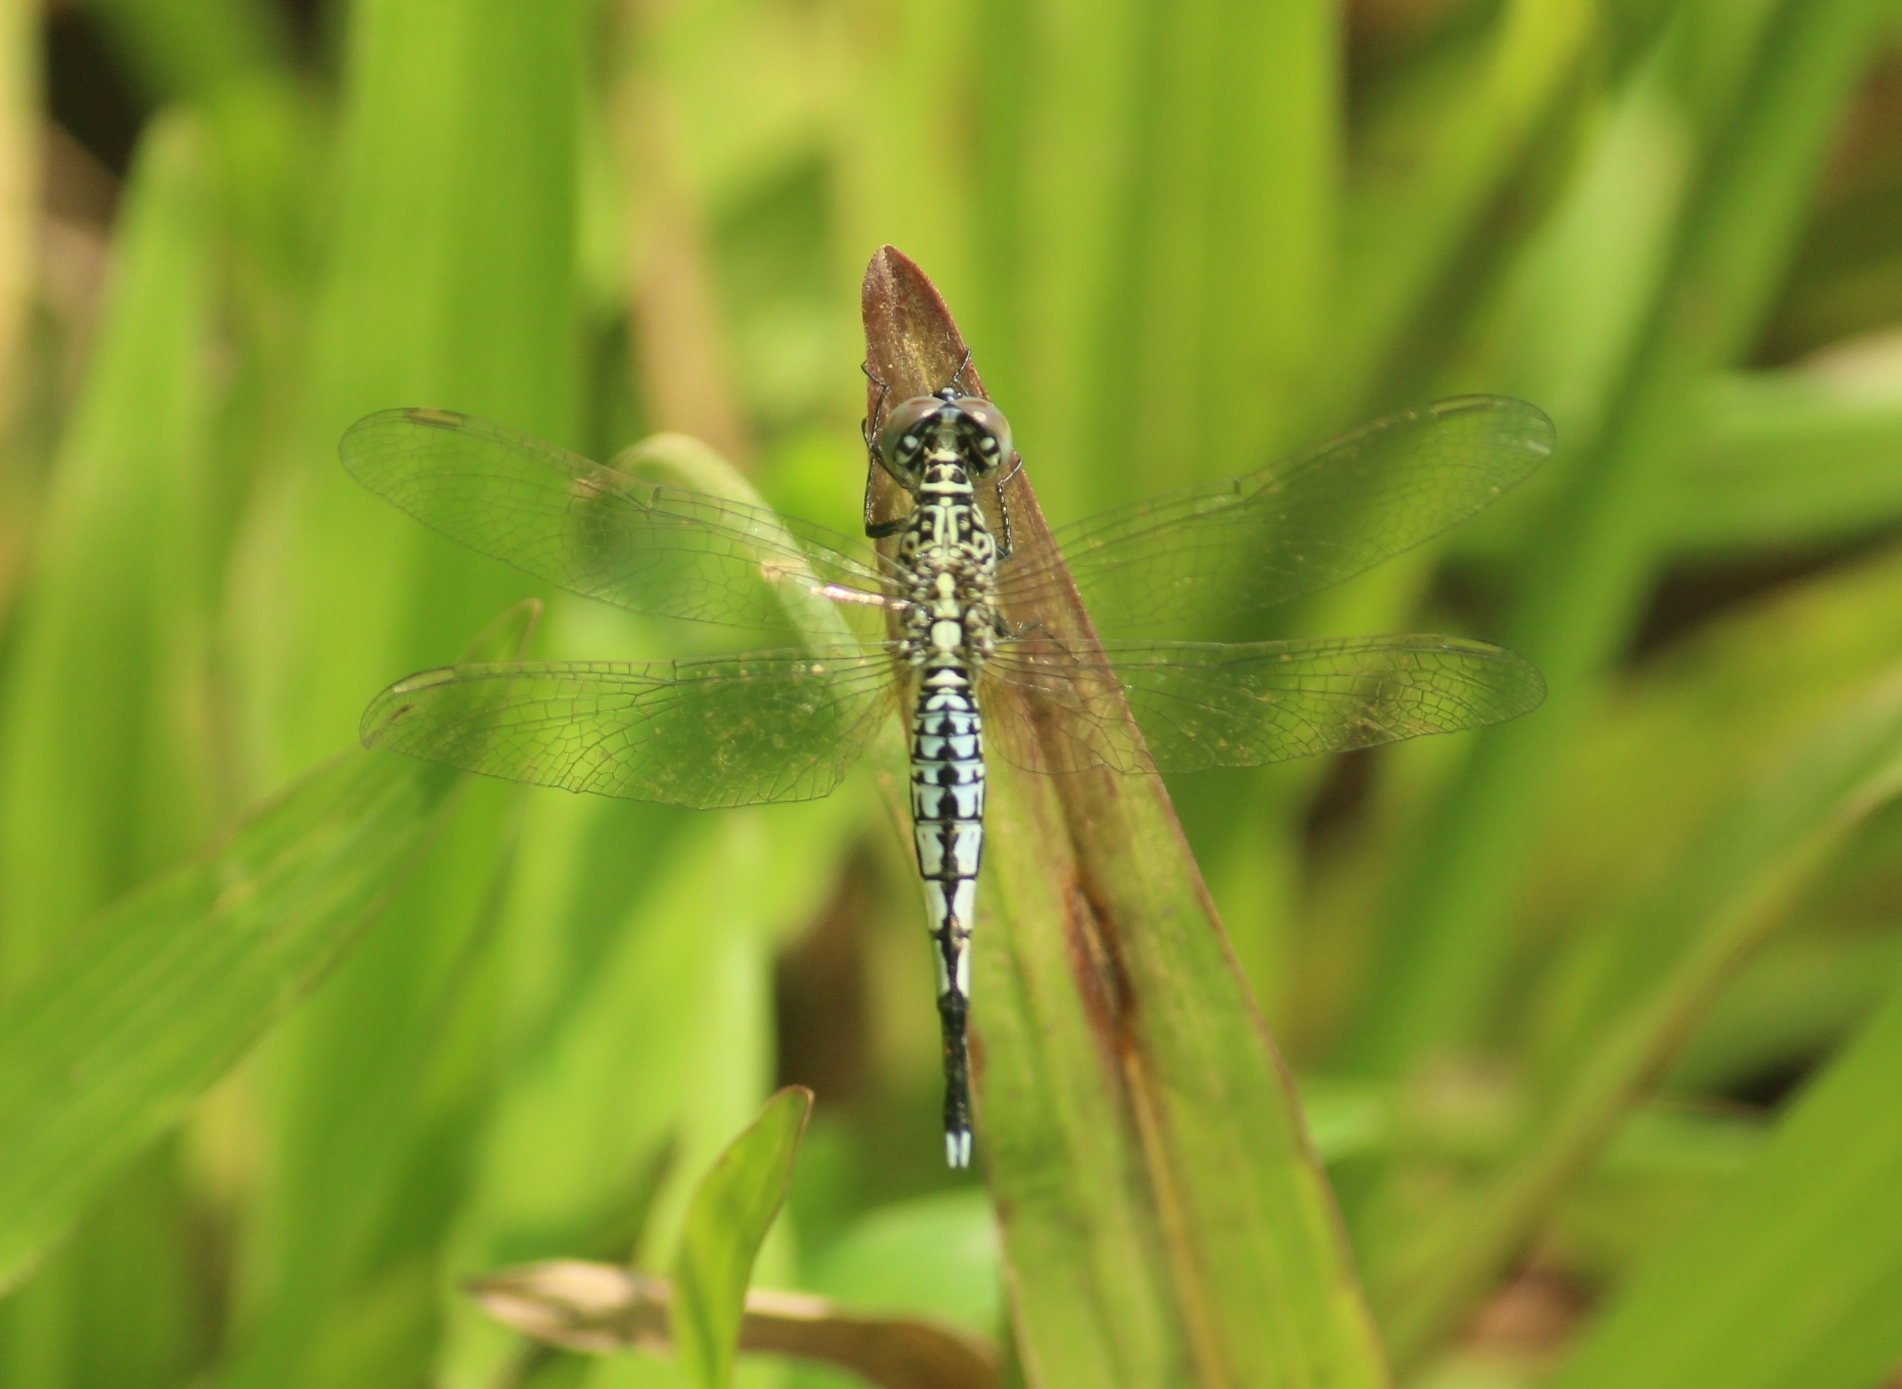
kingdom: Animalia
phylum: Arthropoda
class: Insecta
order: Odonata
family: Libellulidae
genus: Acisoma
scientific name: Acisoma panorpoides
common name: Asian pintail
